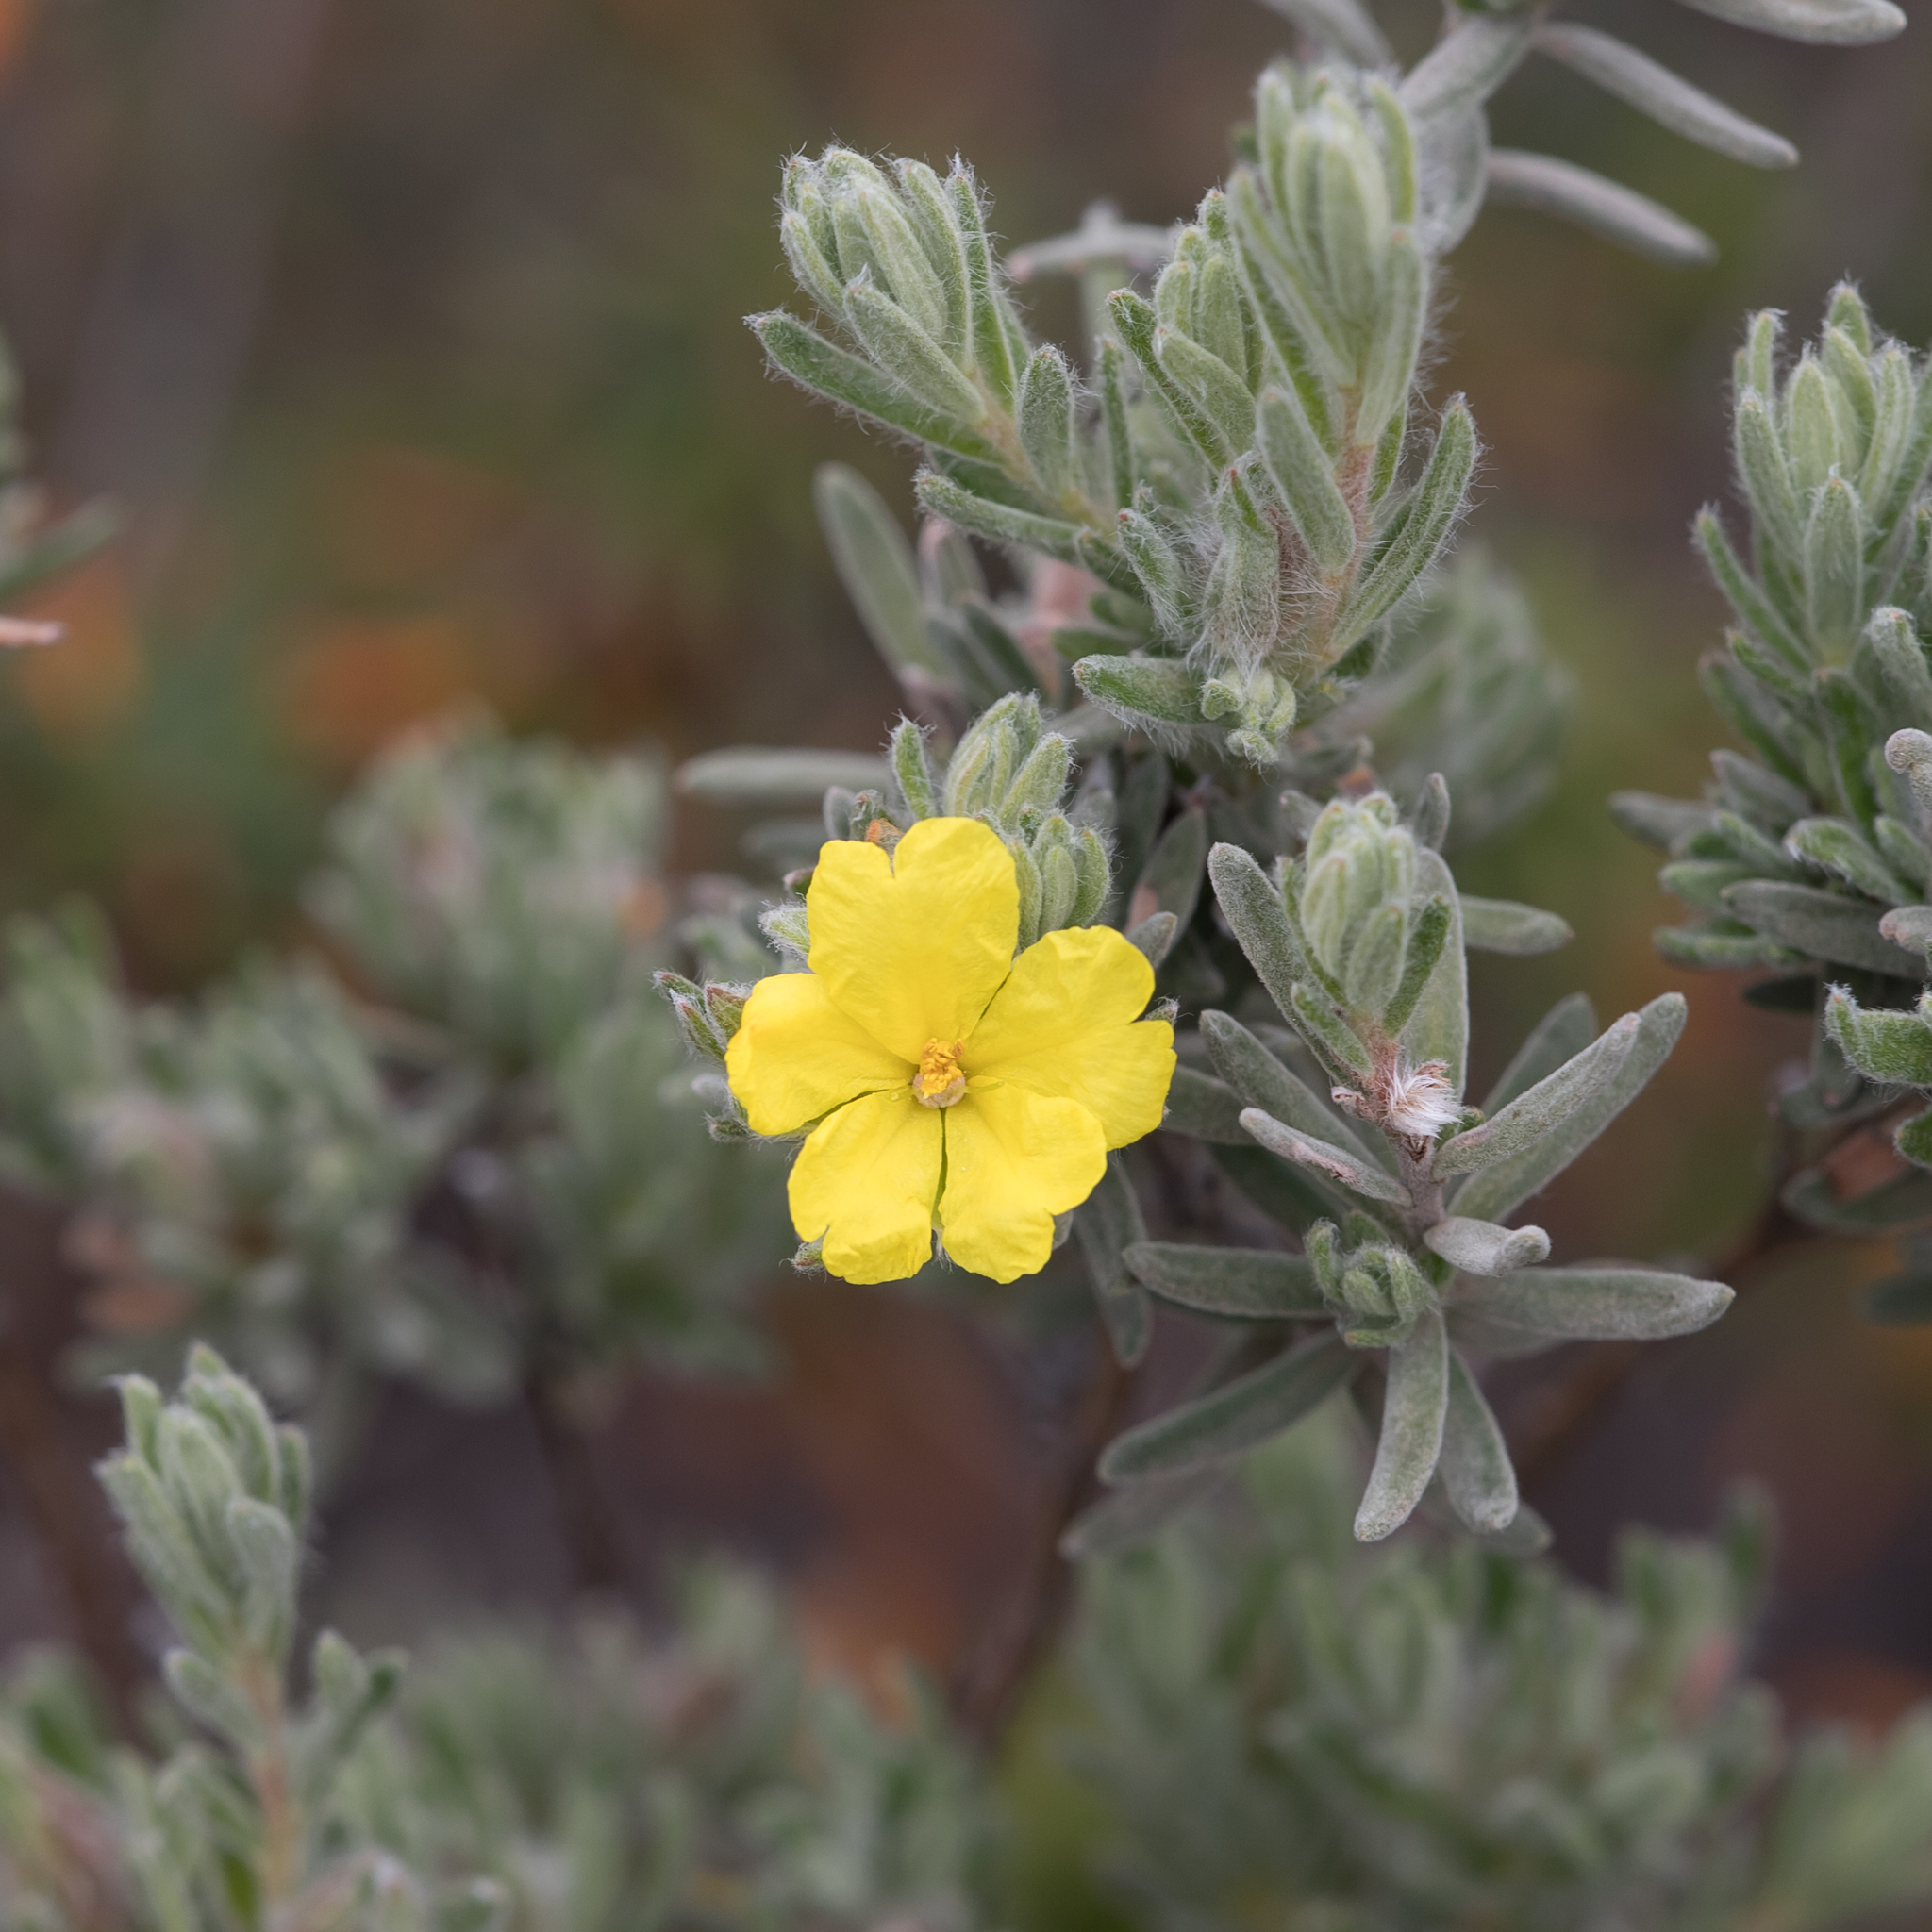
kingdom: Plantae
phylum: Tracheophyta
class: Magnoliopsida
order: Dilleniales
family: Dilleniaceae
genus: Hibbertia
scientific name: Hibbertia crinita
